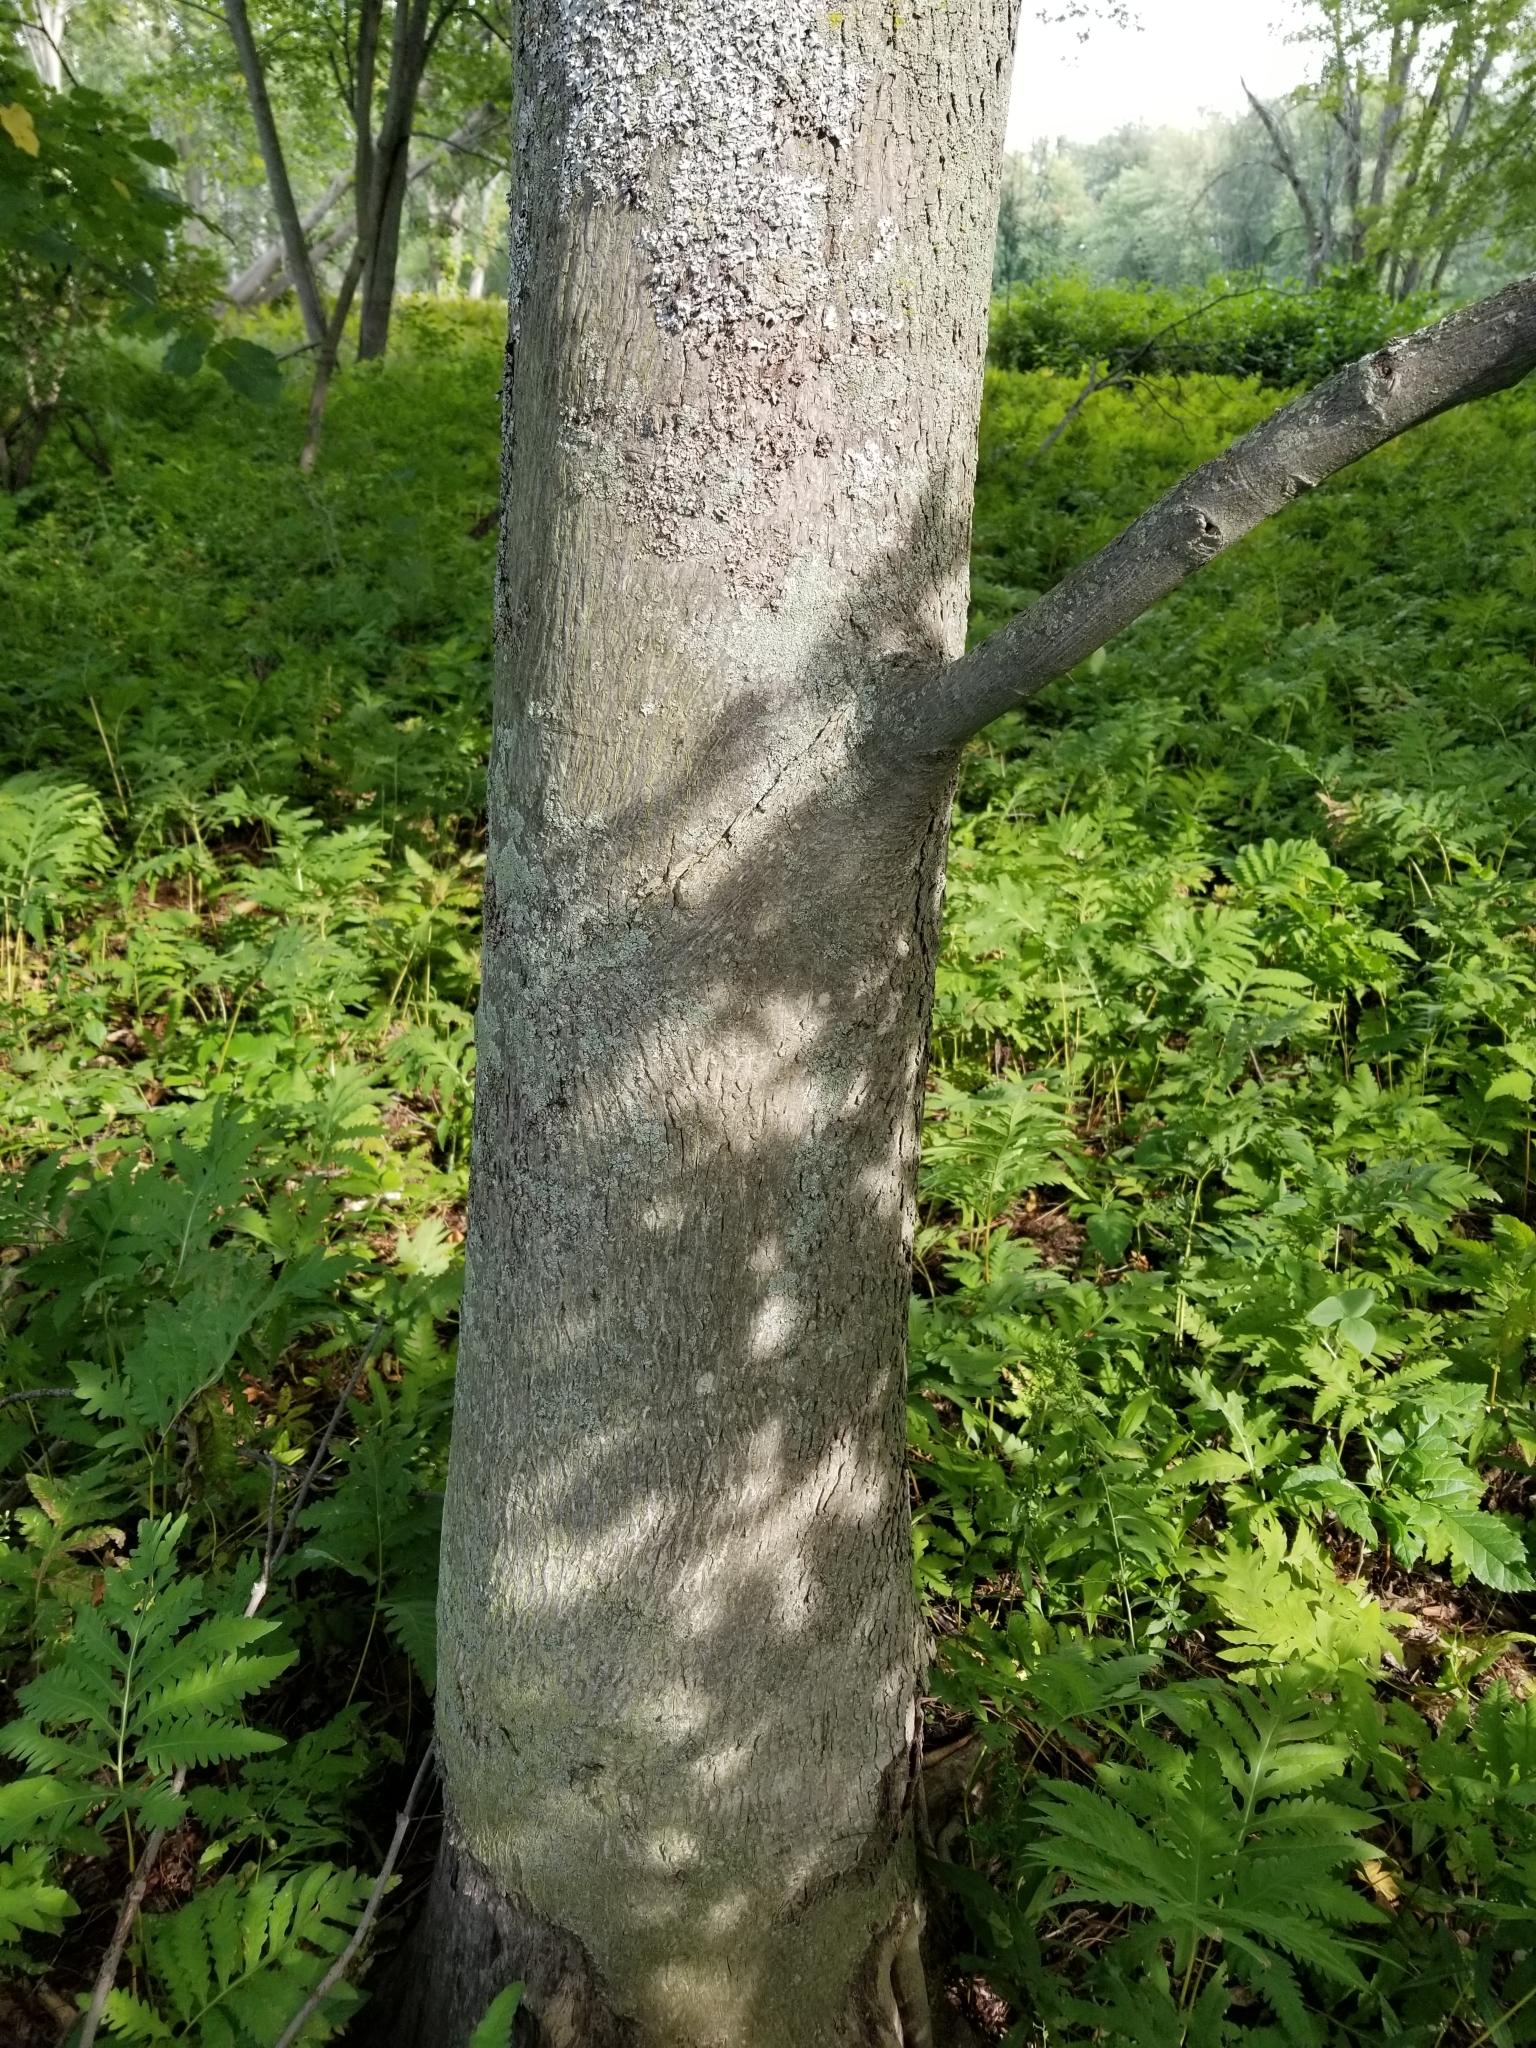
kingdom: Plantae
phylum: Tracheophyta
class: Magnoliopsida
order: Fagales
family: Juglandaceae
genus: Carya
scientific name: Carya cordiformis
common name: Bitternut hickory
